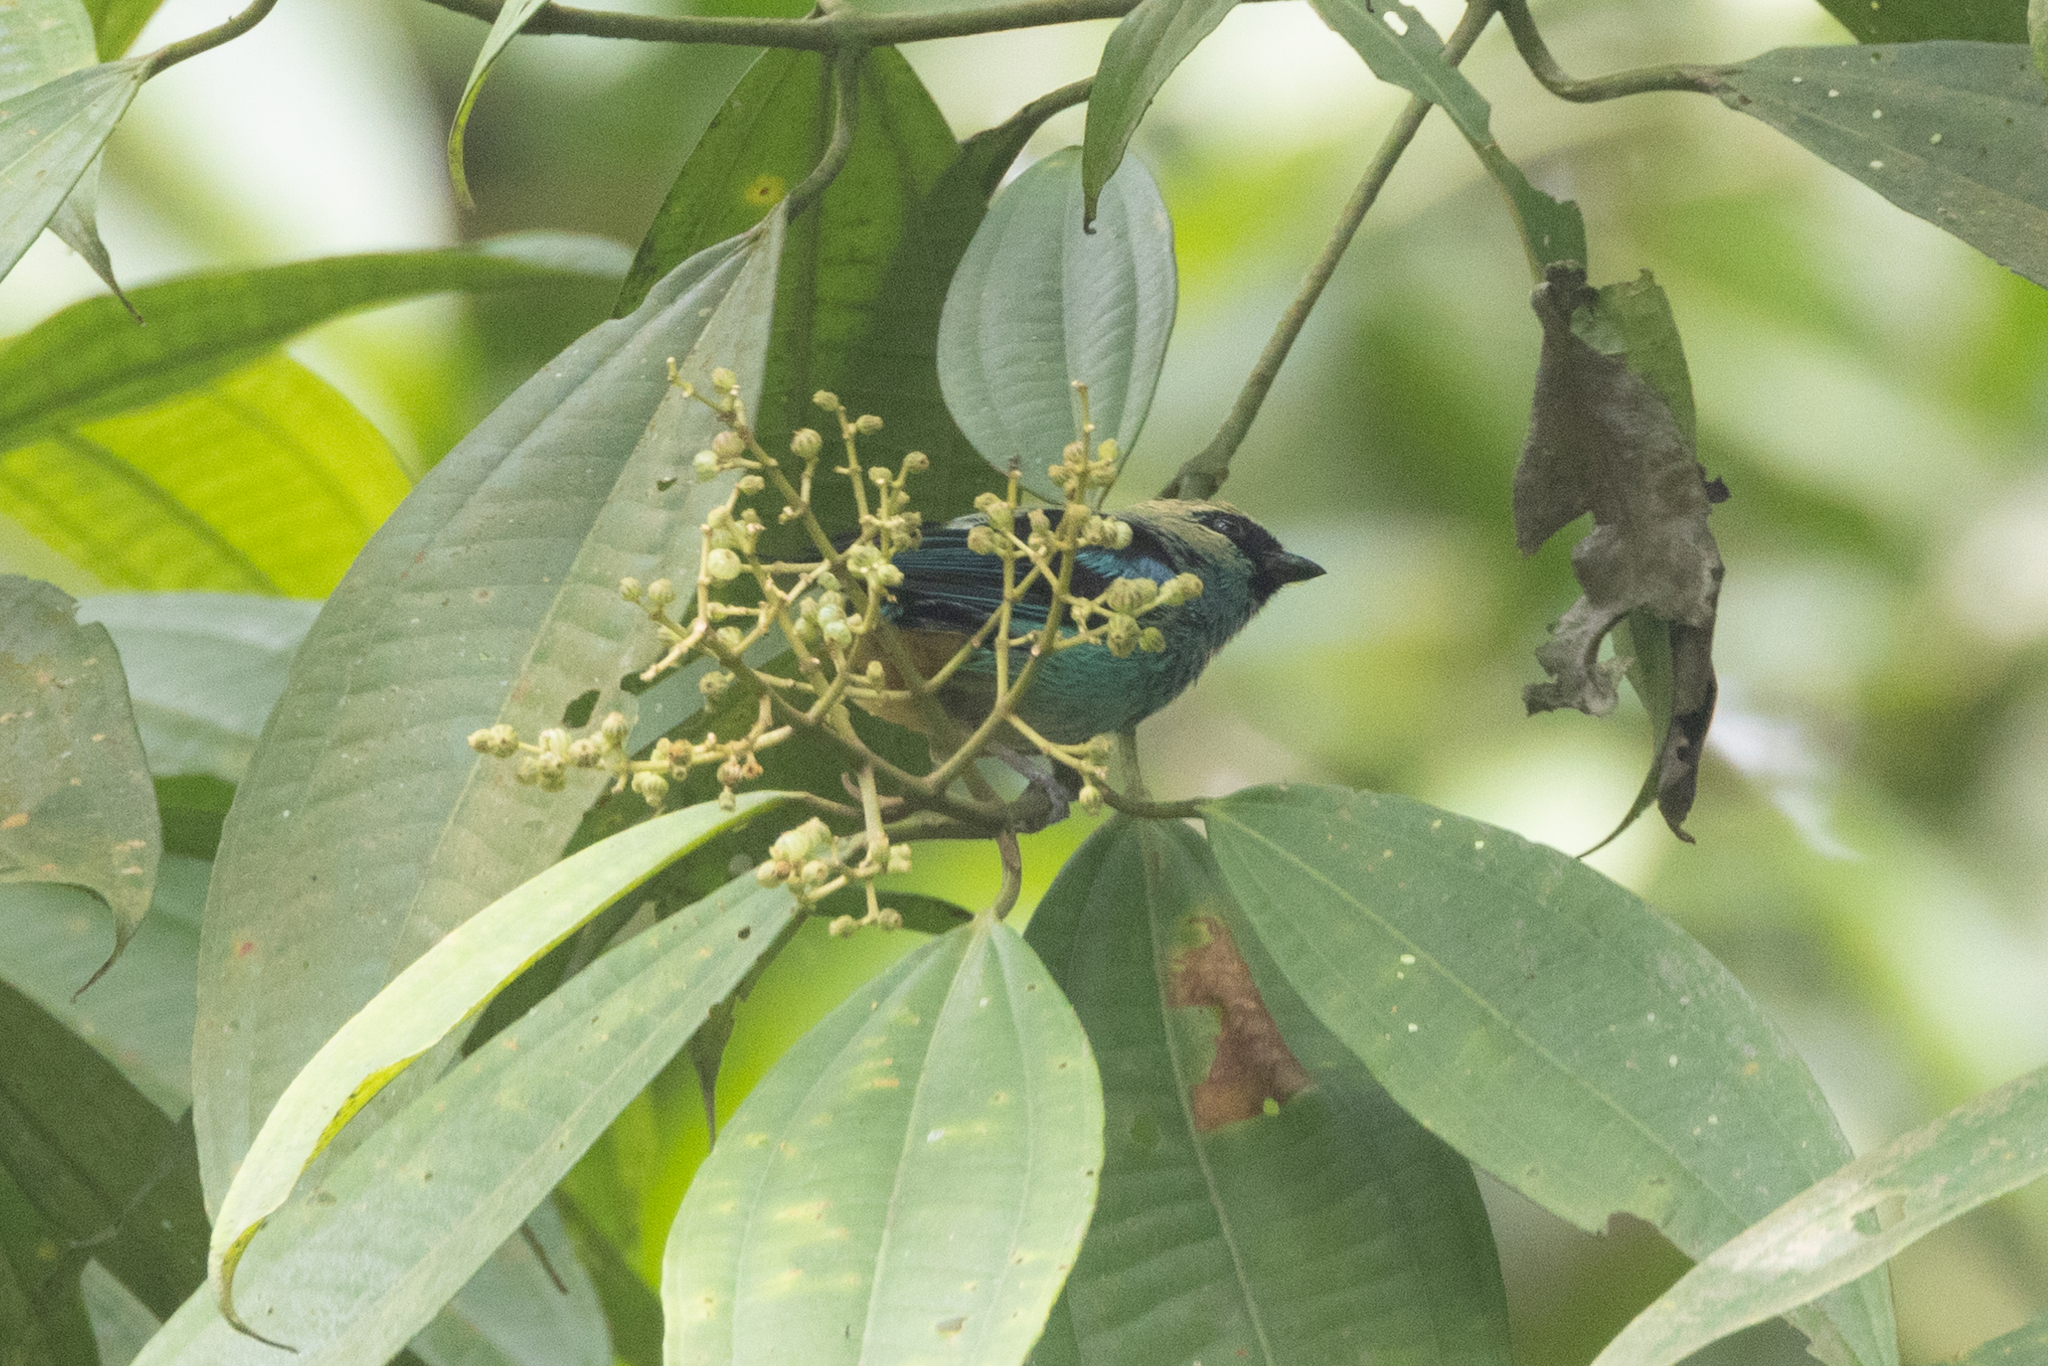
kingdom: Animalia
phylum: Chordata
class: Aves
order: Passeriformes
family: Thraupidae
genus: Tangara
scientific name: Tangara labradorides
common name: Metallic-green tanager
